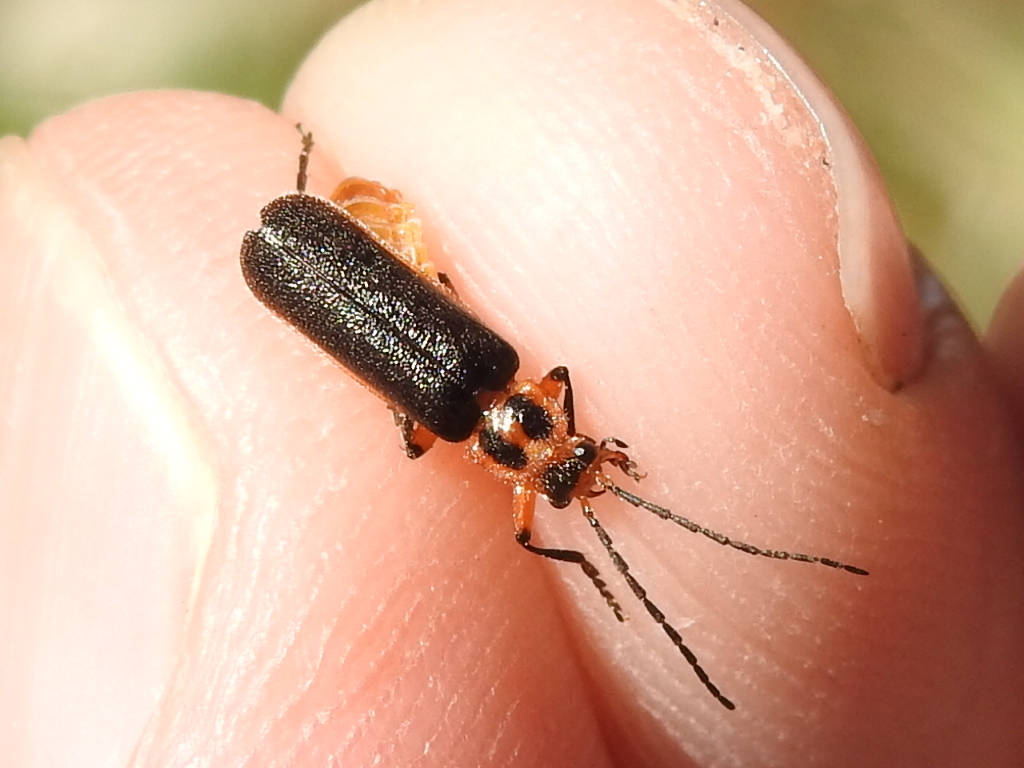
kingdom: Animalia
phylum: Arthropoda
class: Insecta
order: Coleoptera
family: Cantharidae
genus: Atalantycha
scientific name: Atalantycha bilineata
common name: Two-lined leatherwing
